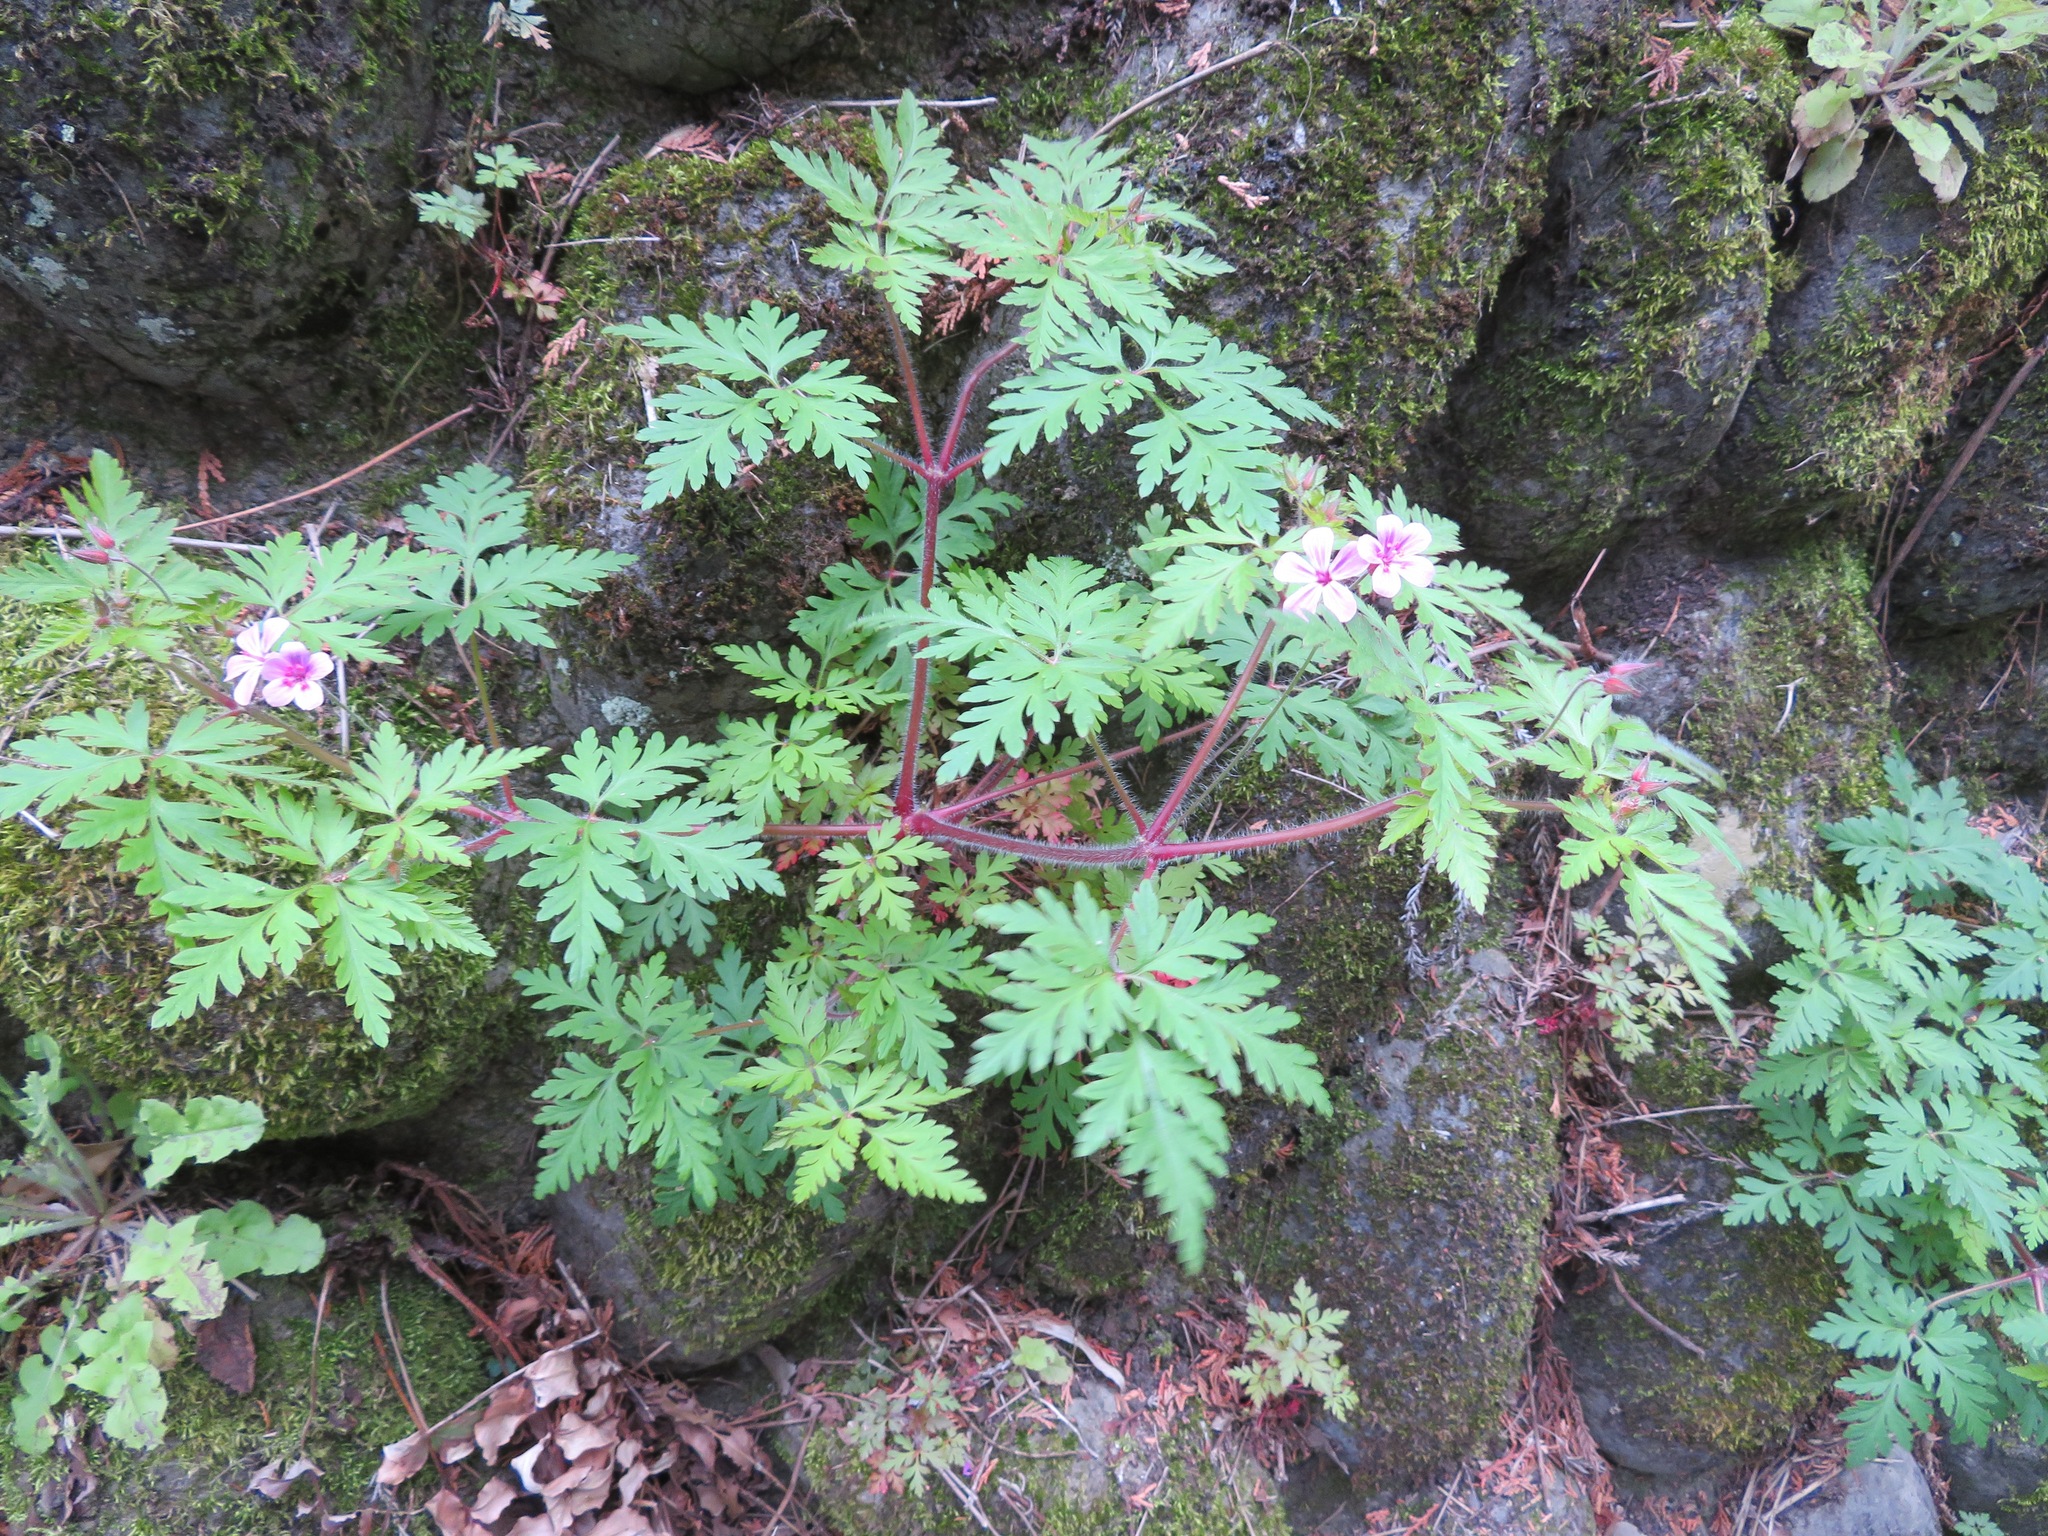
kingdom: Plantae
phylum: Tracheophyta
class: Magnoliopsida
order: Geraniales
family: Geraniaceae
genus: Geranium
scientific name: Geranium robertianum
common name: Herb-robert
